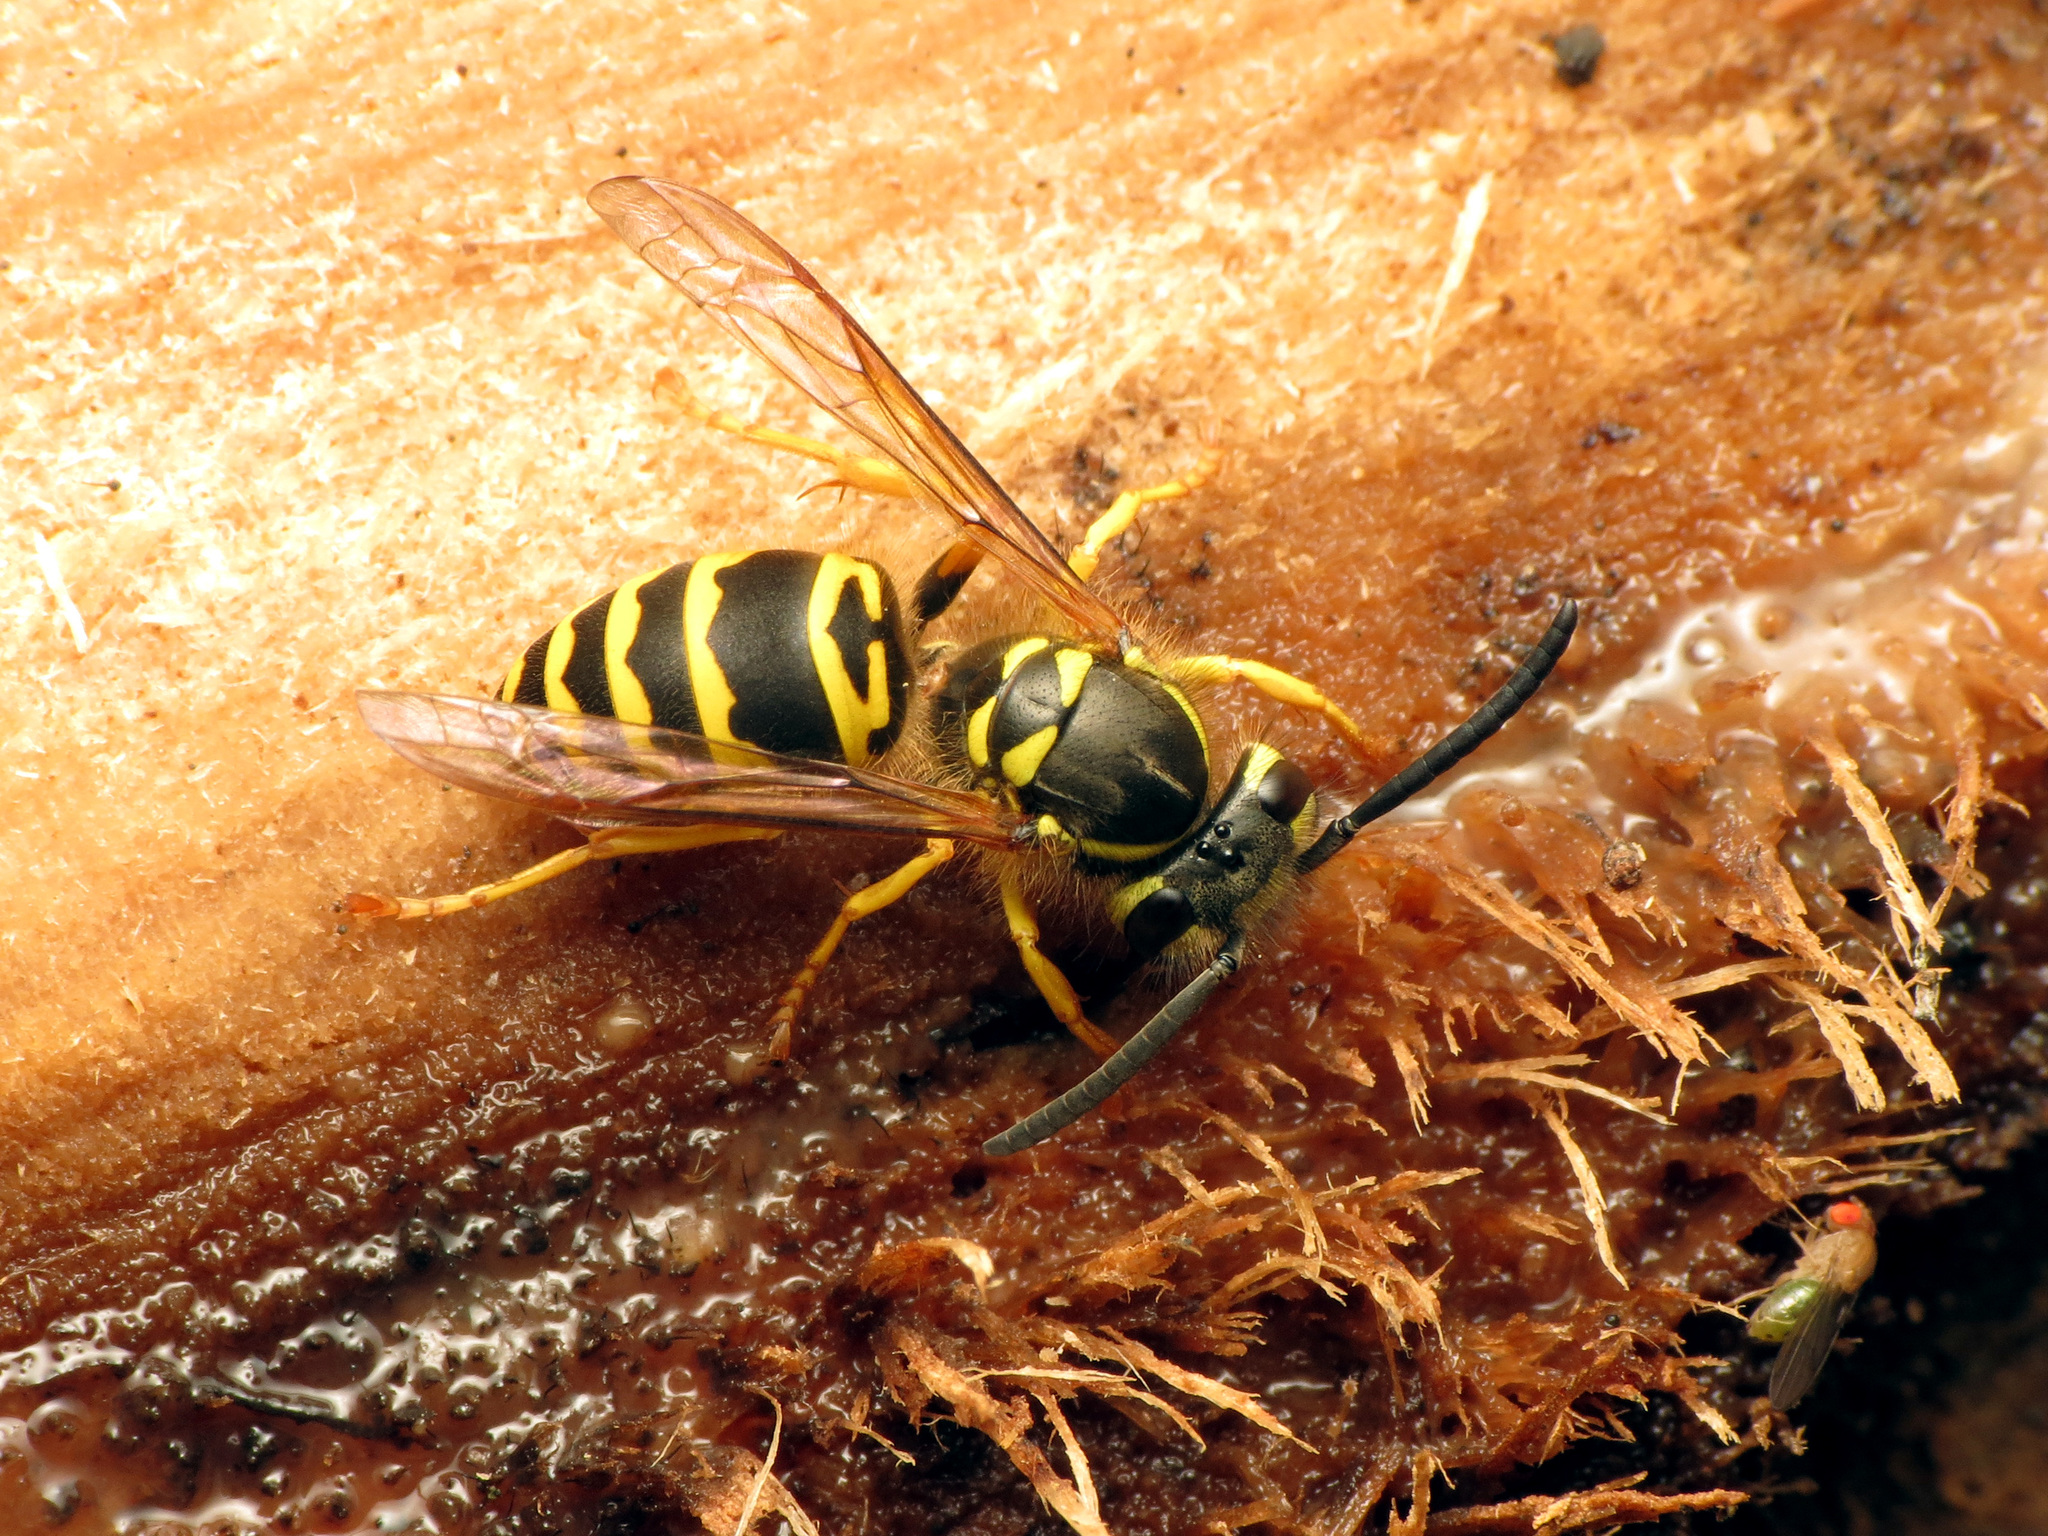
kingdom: Animalia
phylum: Arthropoda
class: Insecta
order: Hymenoptera
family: Vespidae
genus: Vespula
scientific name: Vespula maculifrons
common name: Eastern yellowjacket
